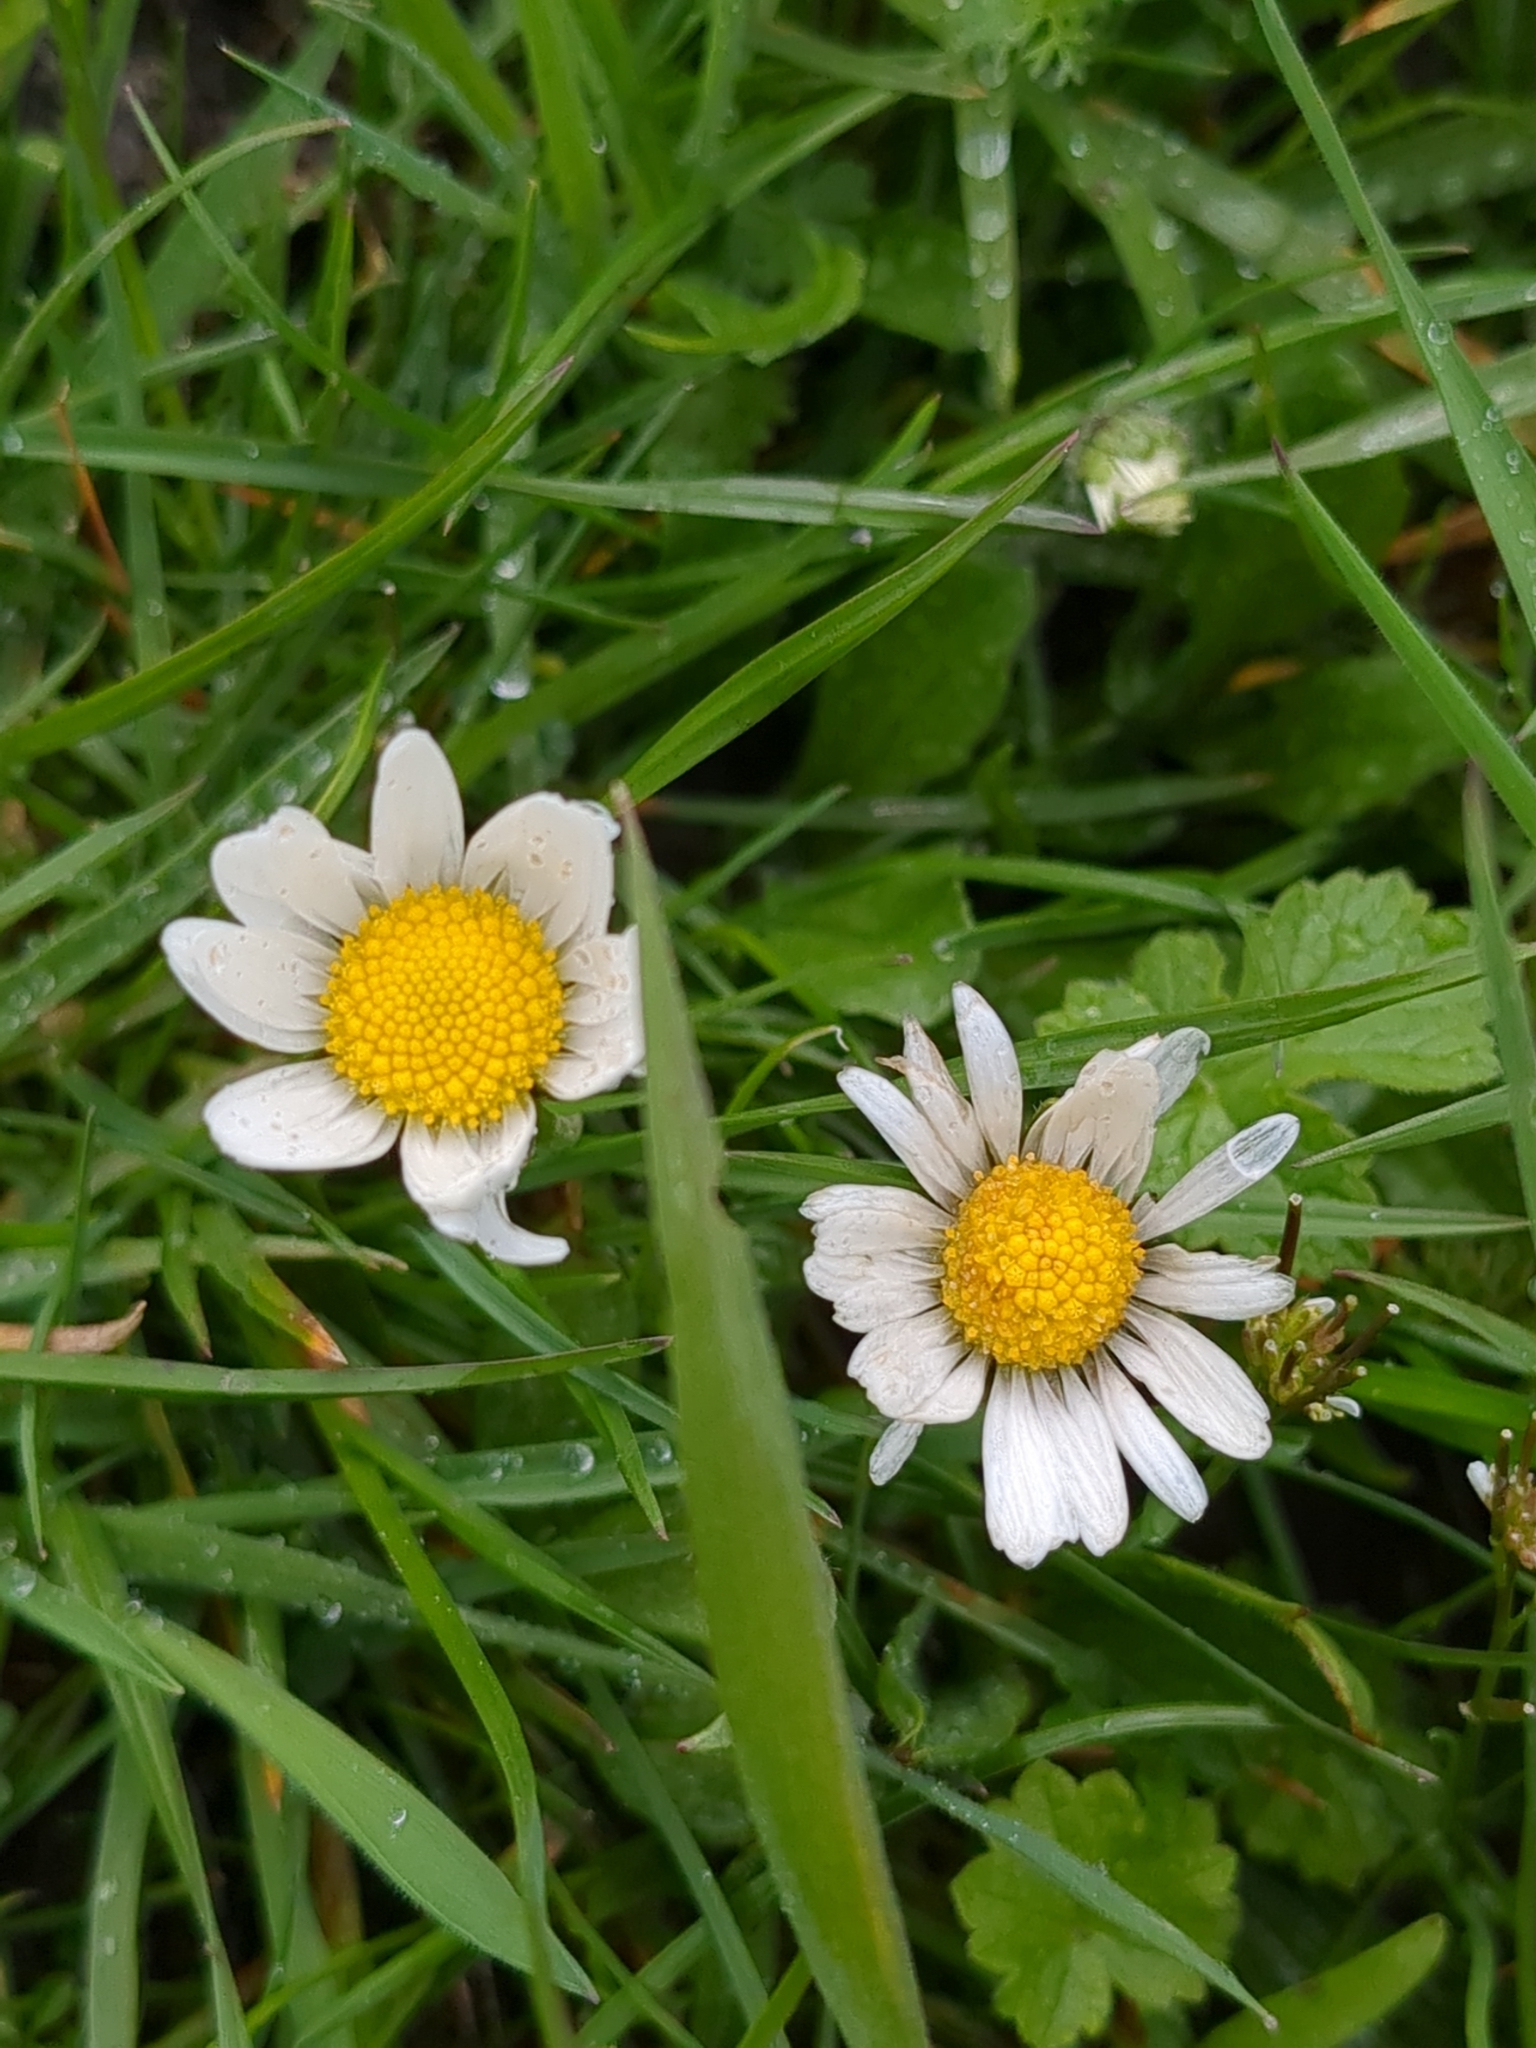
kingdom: Plantae
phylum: Tracheophyta
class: Magnoliopsida
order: Asterales
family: Asteraceae
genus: Bellis
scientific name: Bellis perennis
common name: Lawndaisy
